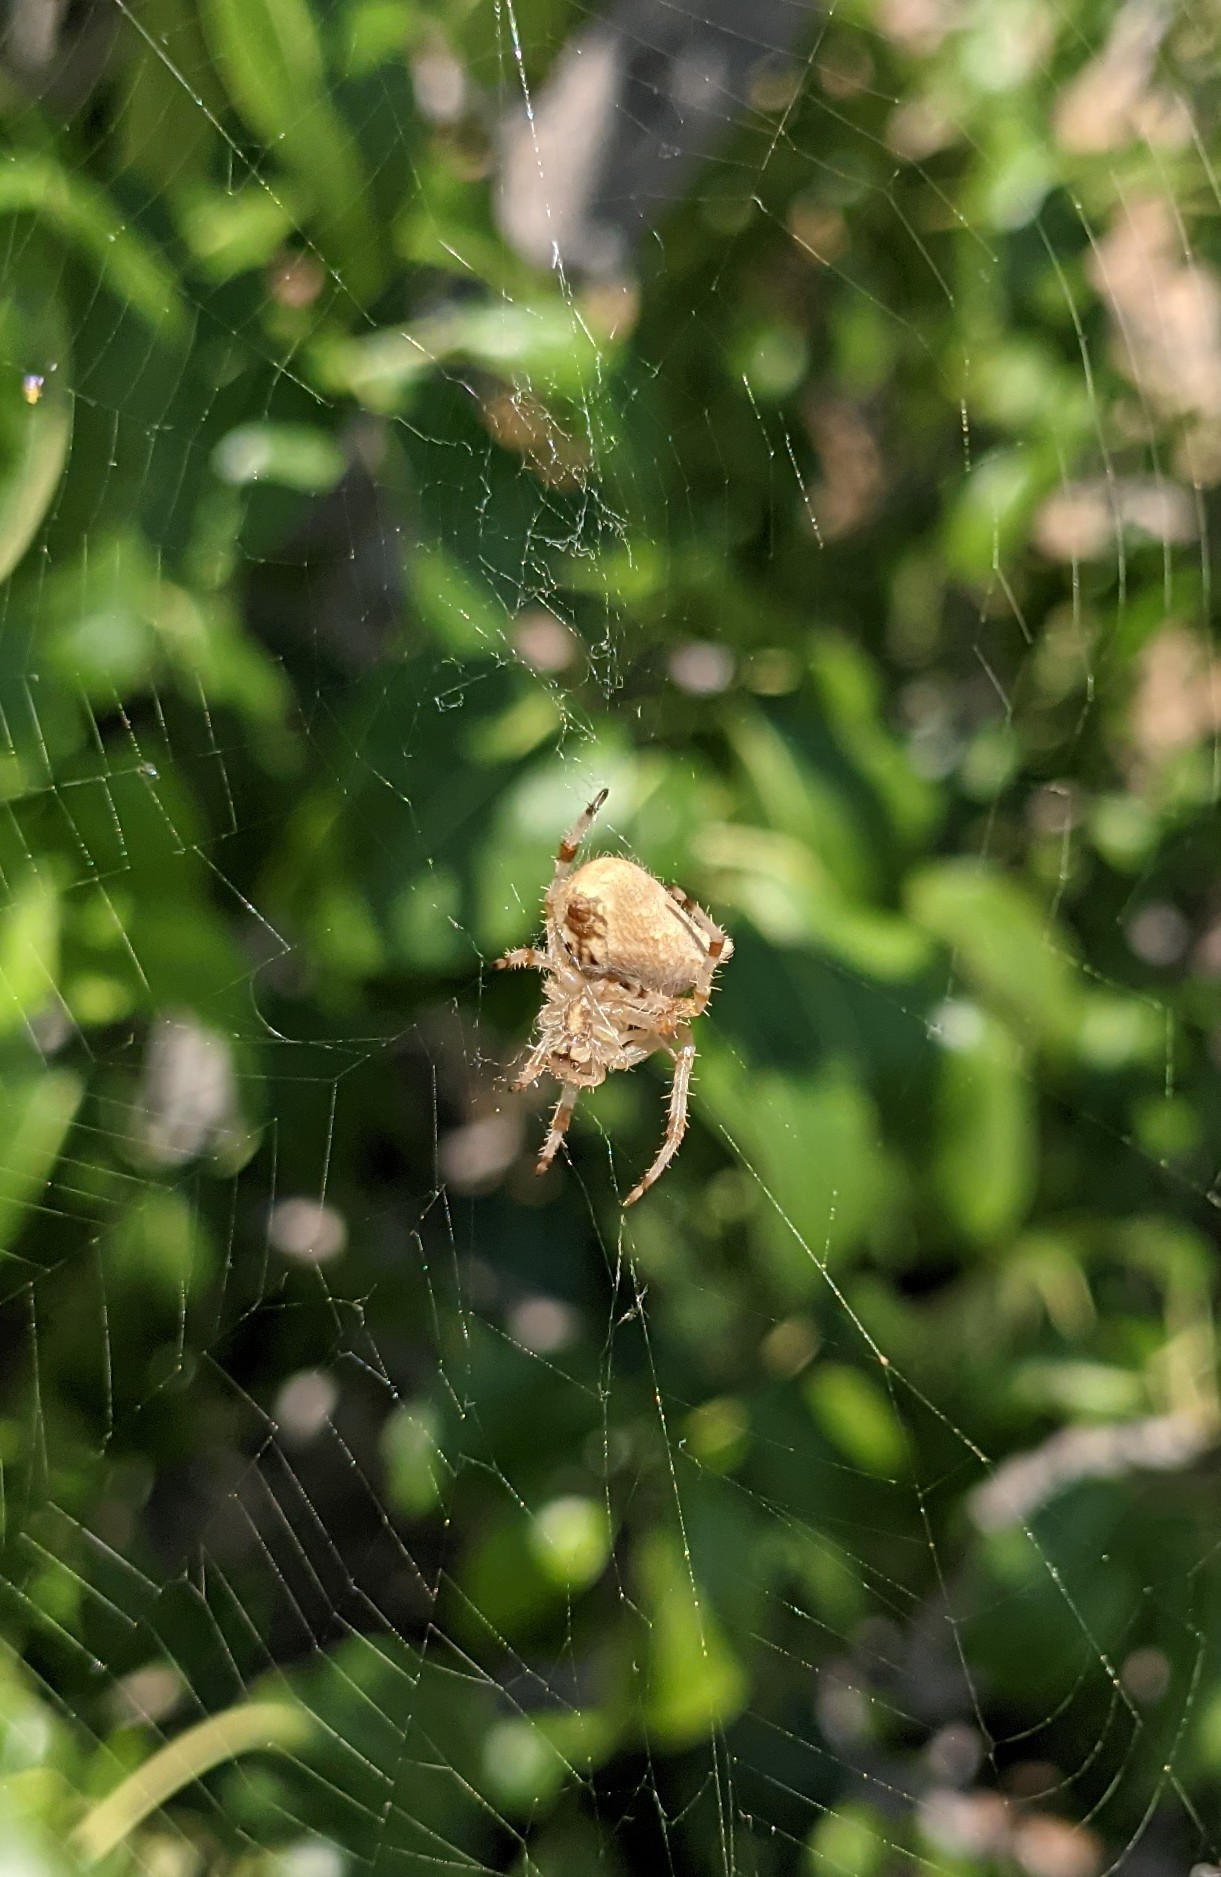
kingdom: Animalia
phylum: Arthropoda
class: Arachnida
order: Araneae
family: Araneidae
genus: Araneus
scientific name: Araneus gemmoides
